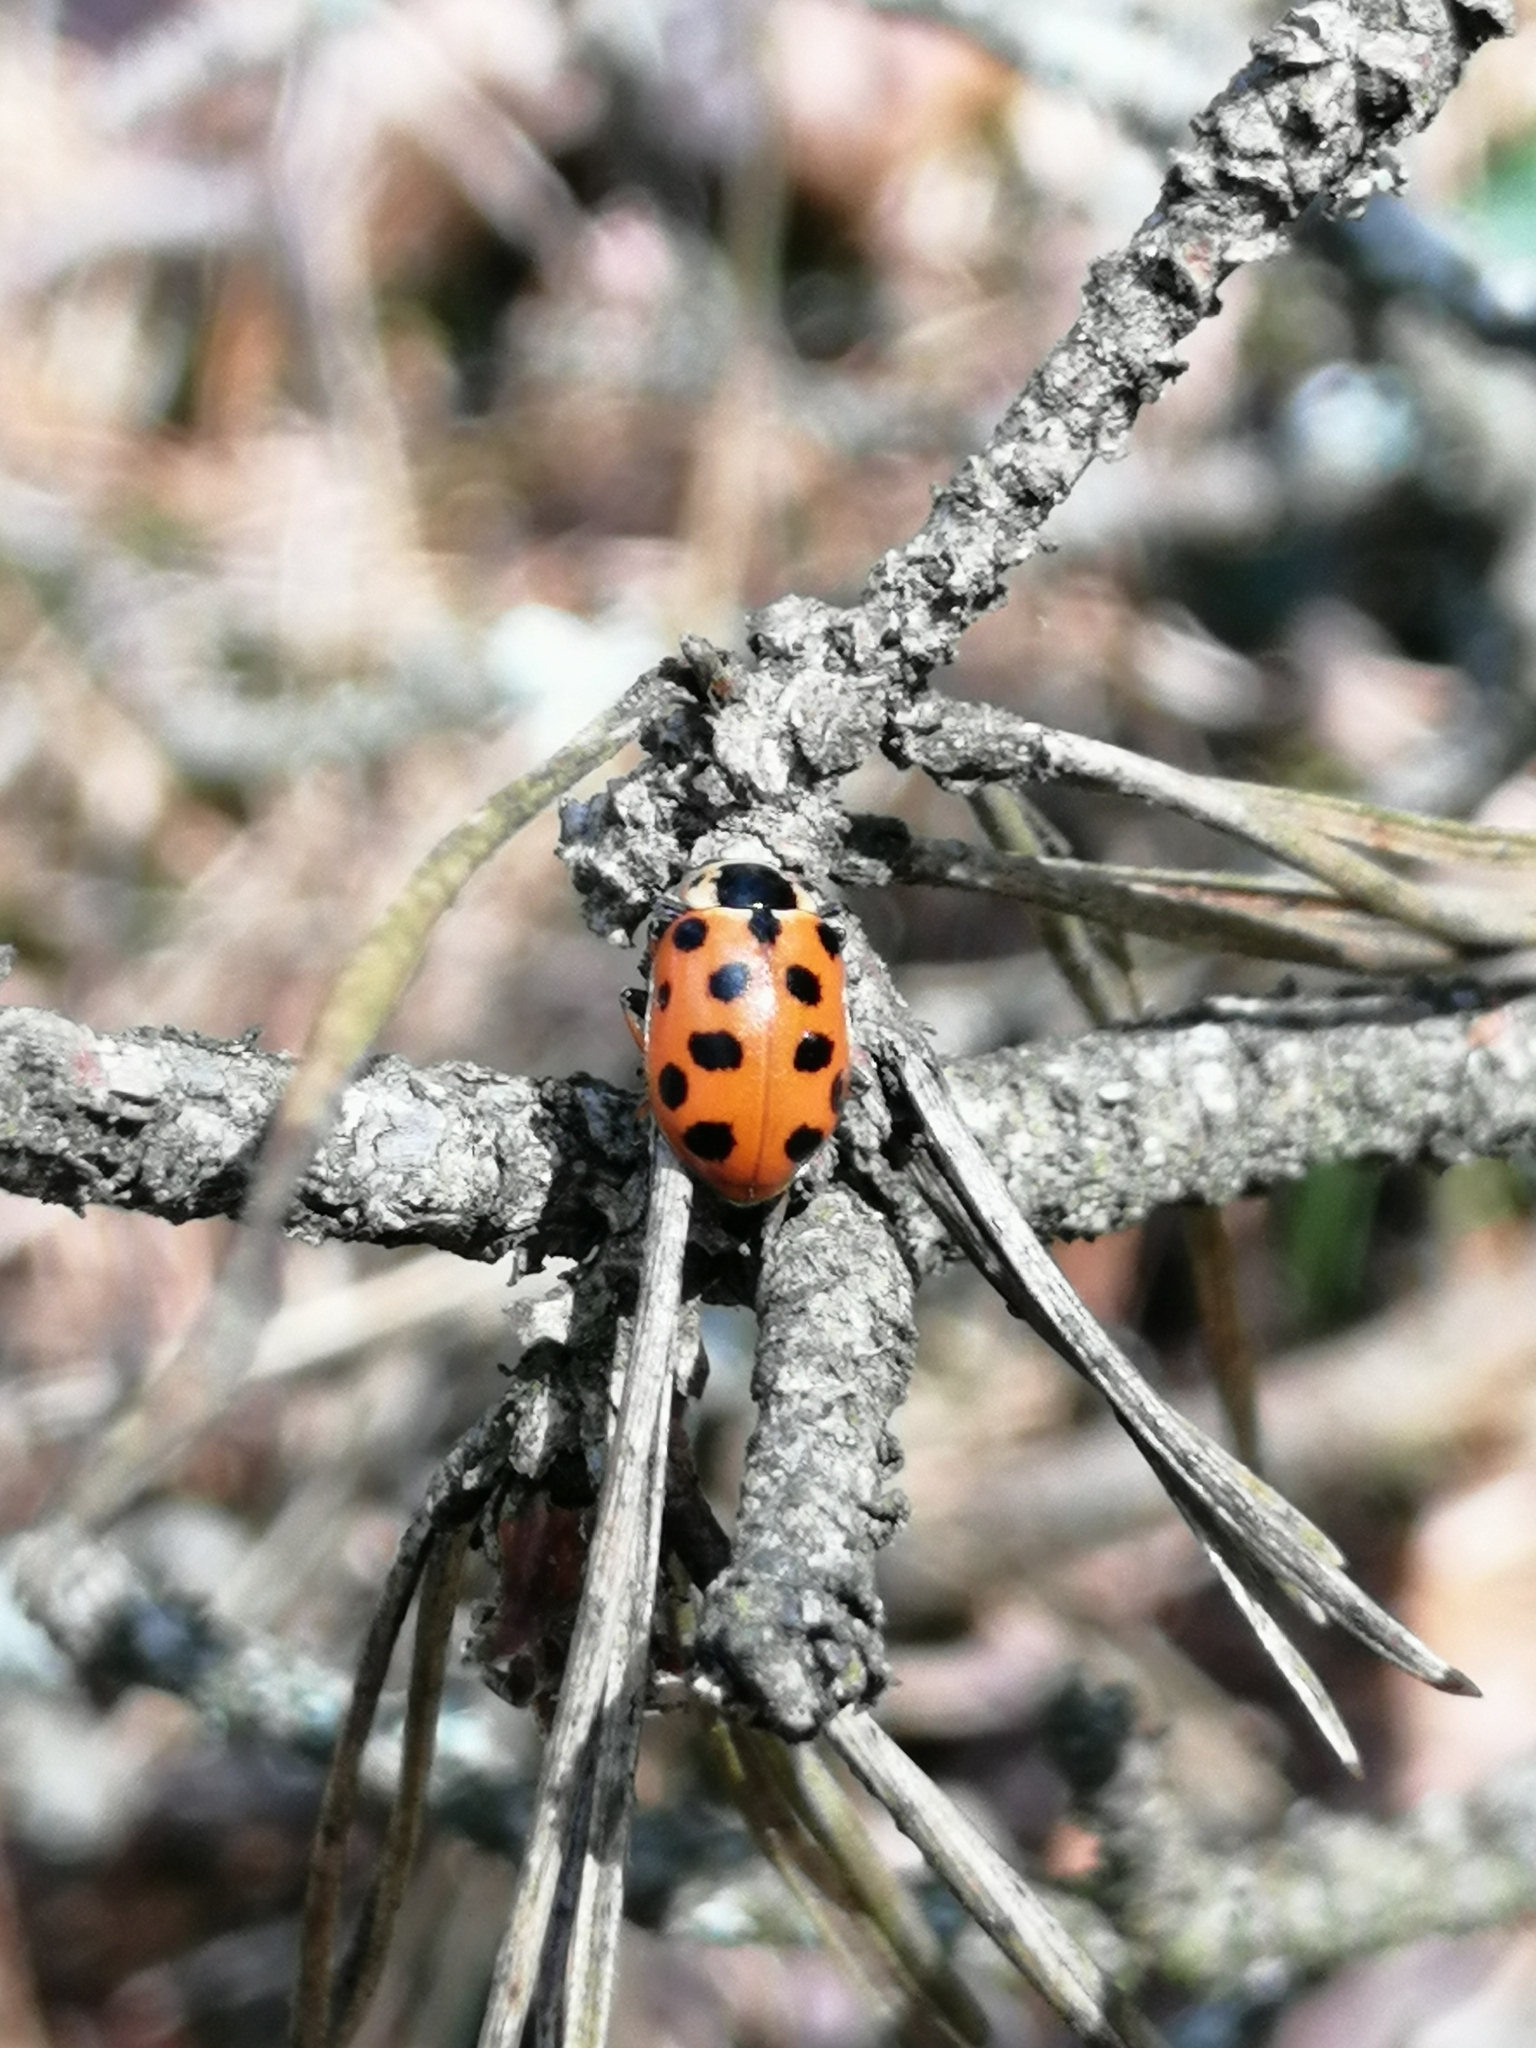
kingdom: Animalia
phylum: Arthropoda
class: Insecta
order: Coleoptera
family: Coccinellidae
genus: Hippodamia
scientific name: Hippodamia tredecimpunctata
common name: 13-spot ladybird
